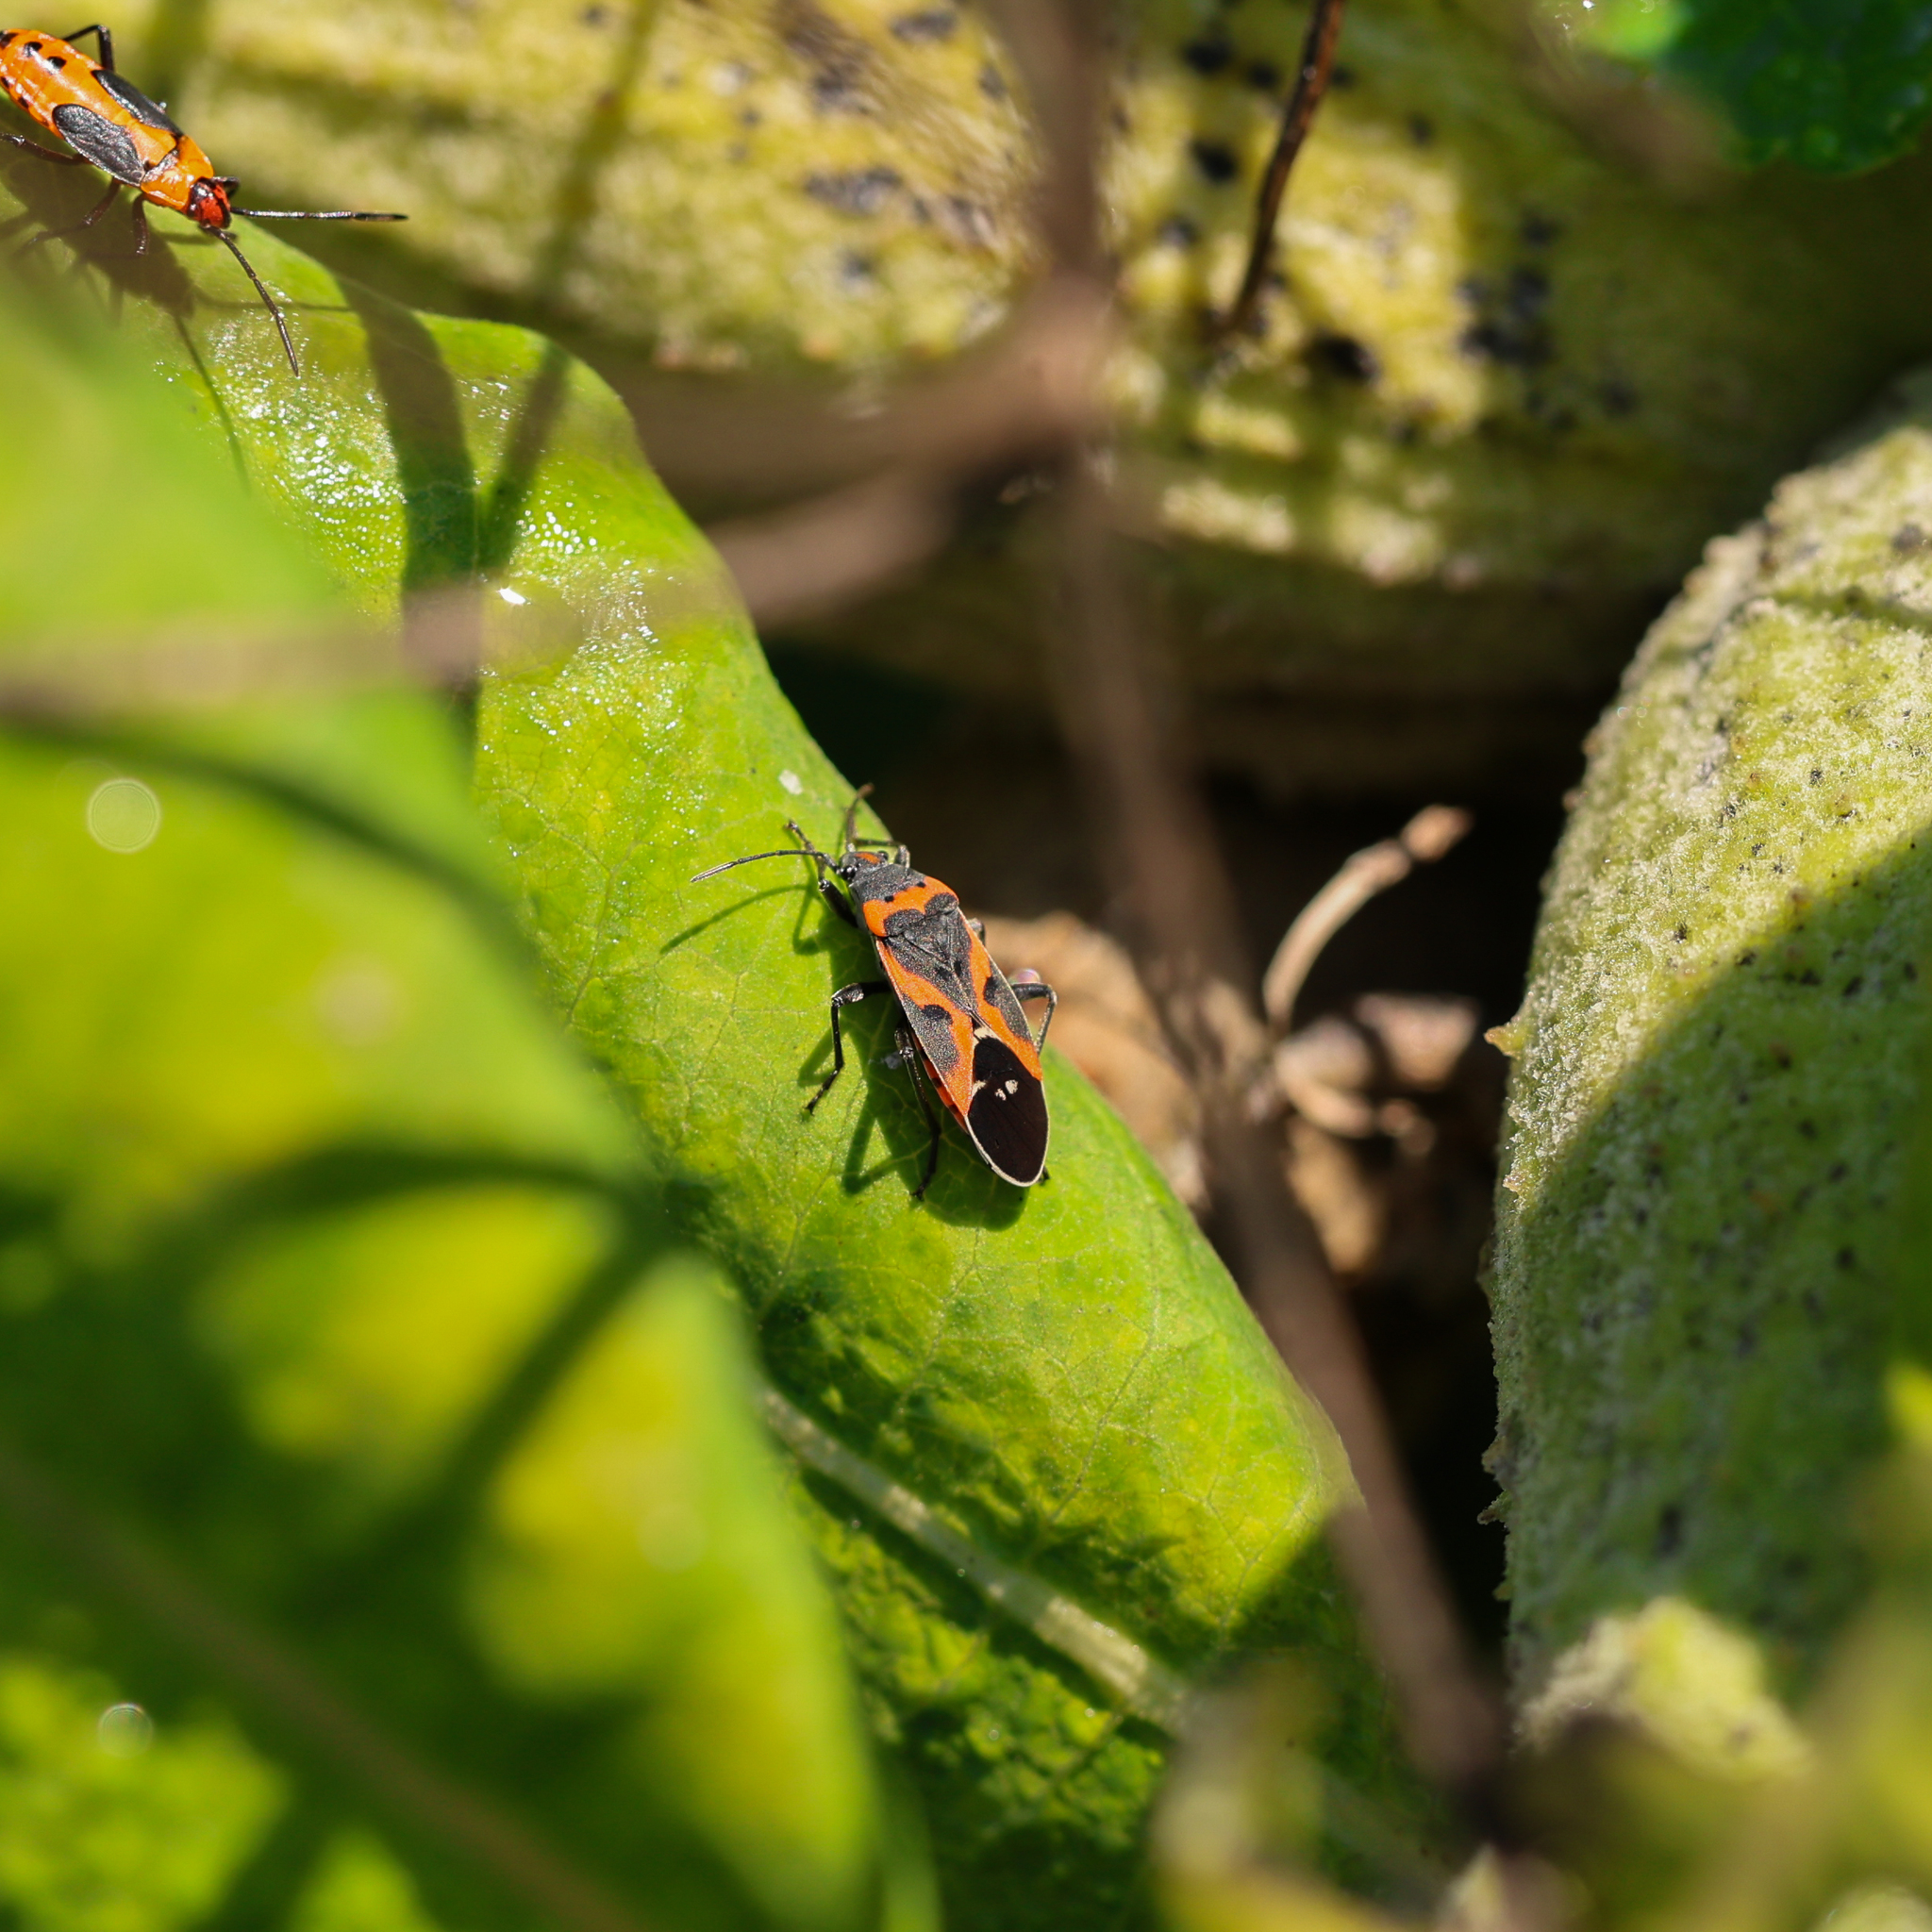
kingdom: Animalia
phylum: Arthropoda
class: Insecta
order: Hemiptera
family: Lygaeidae
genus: Lygaeus
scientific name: Lygaeus kalmii
